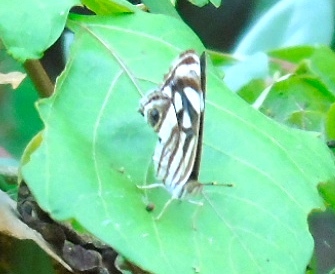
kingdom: Animalia
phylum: Arthropoda
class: Insecta
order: Lepidoptera
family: Nymphalidae
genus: Dynamine
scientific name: Dynamine mylitta
